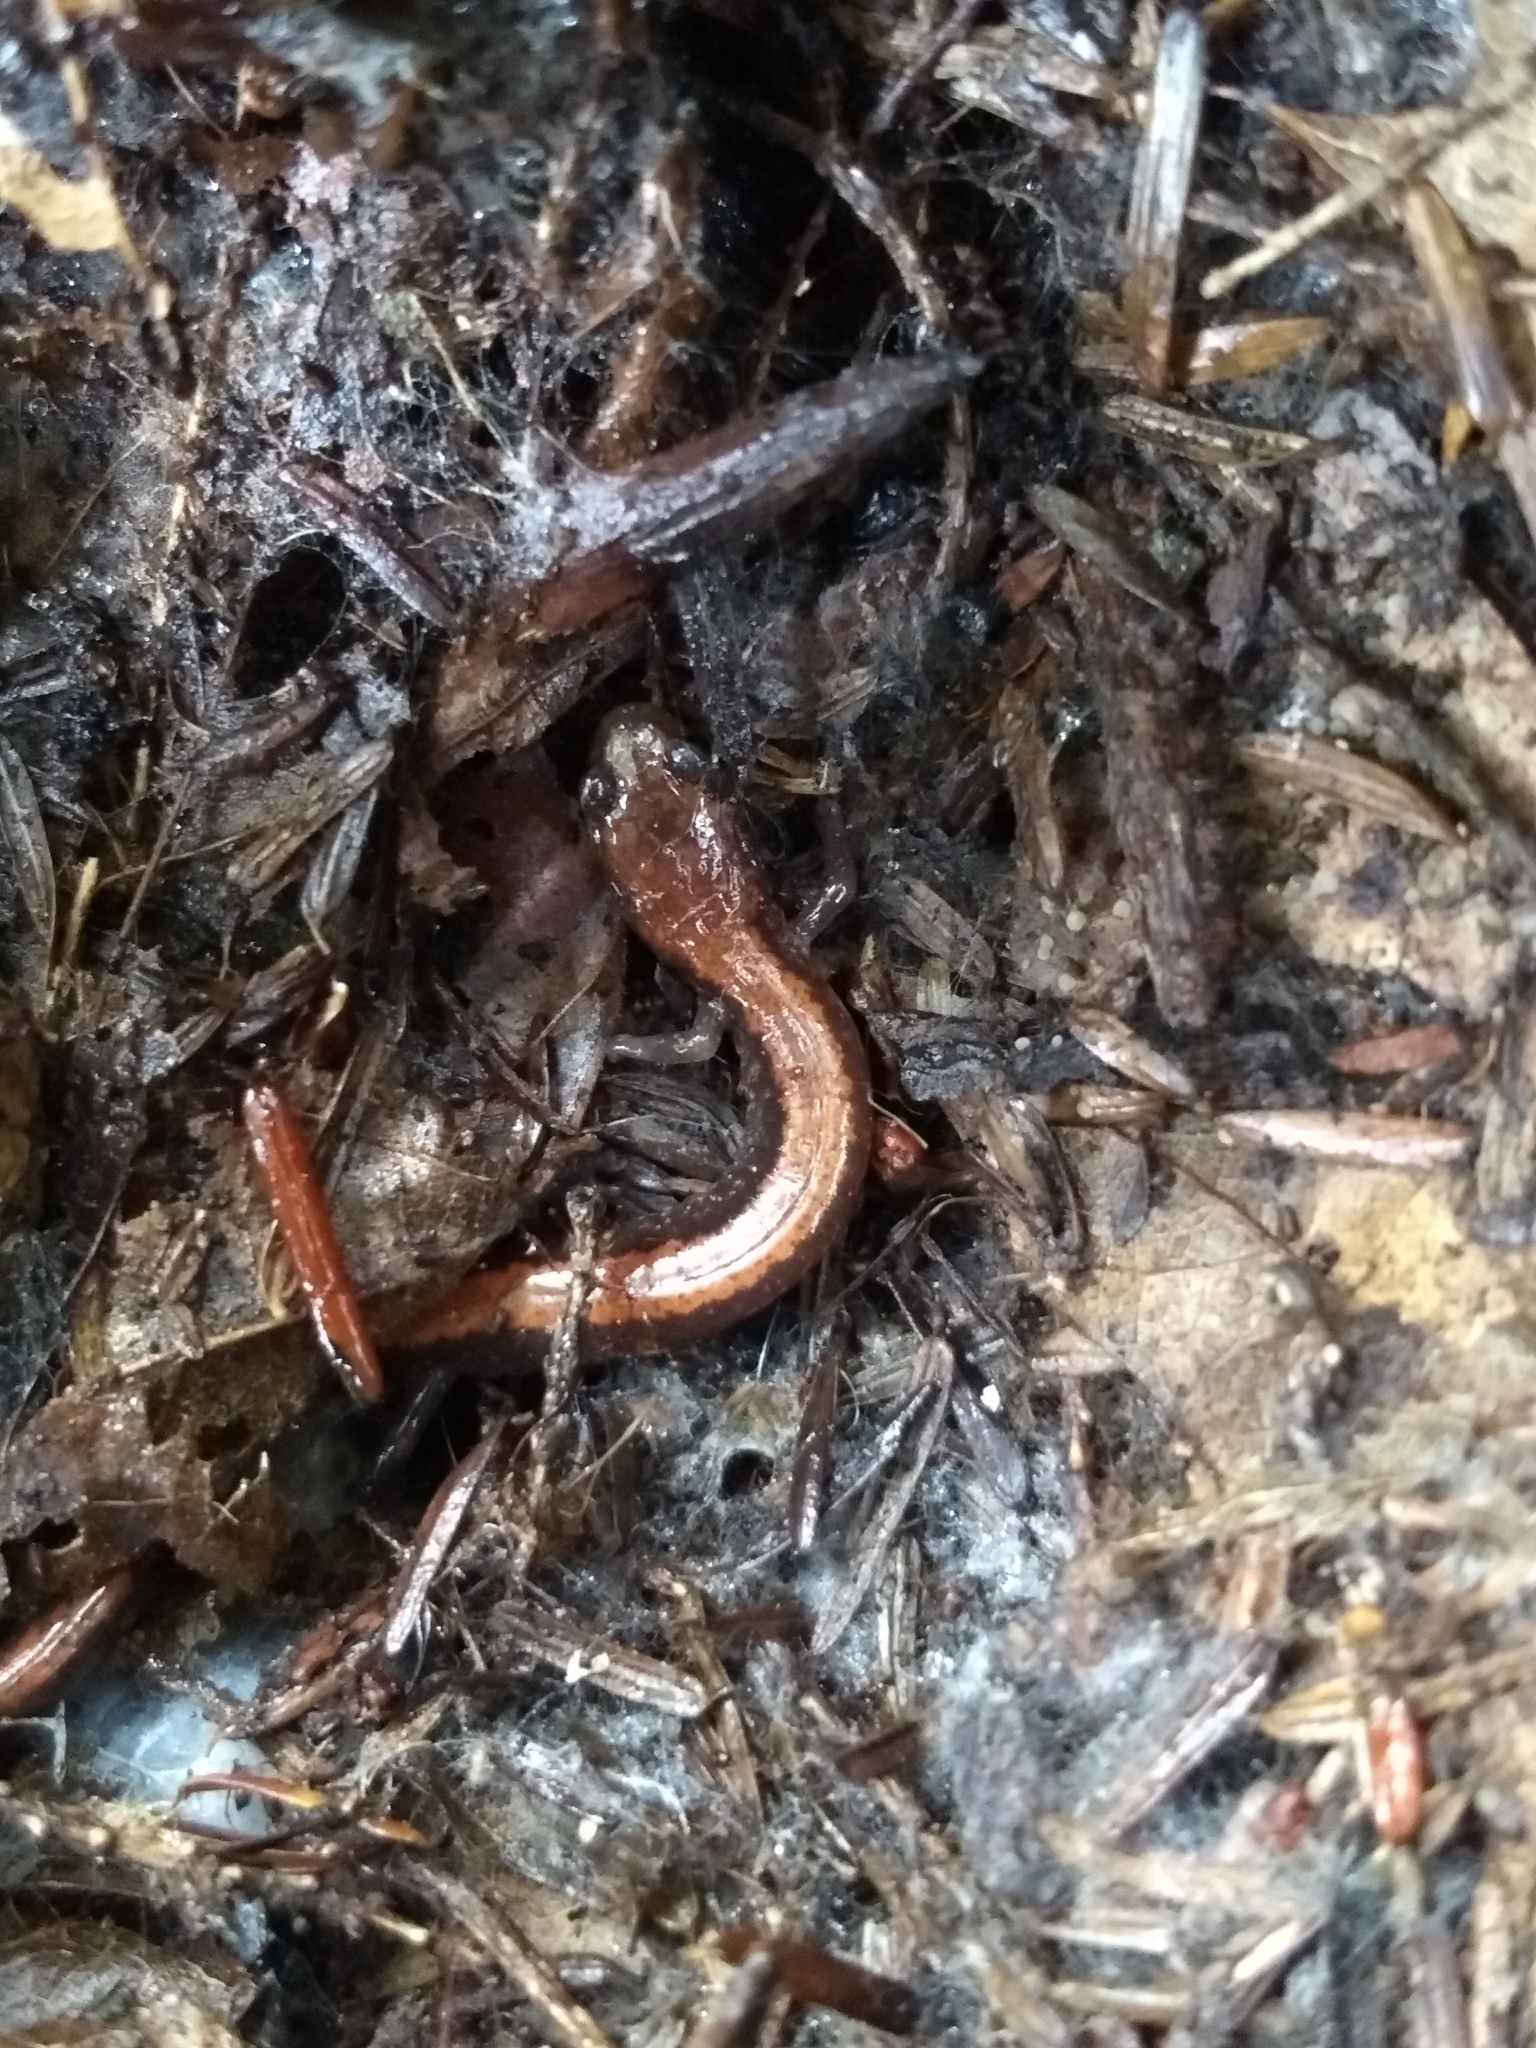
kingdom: Animalia
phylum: Chordata
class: Amphibia
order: Caudata
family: Plethodontidae
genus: Plethodon
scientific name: Plethodon cinereus
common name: Redback salamander
